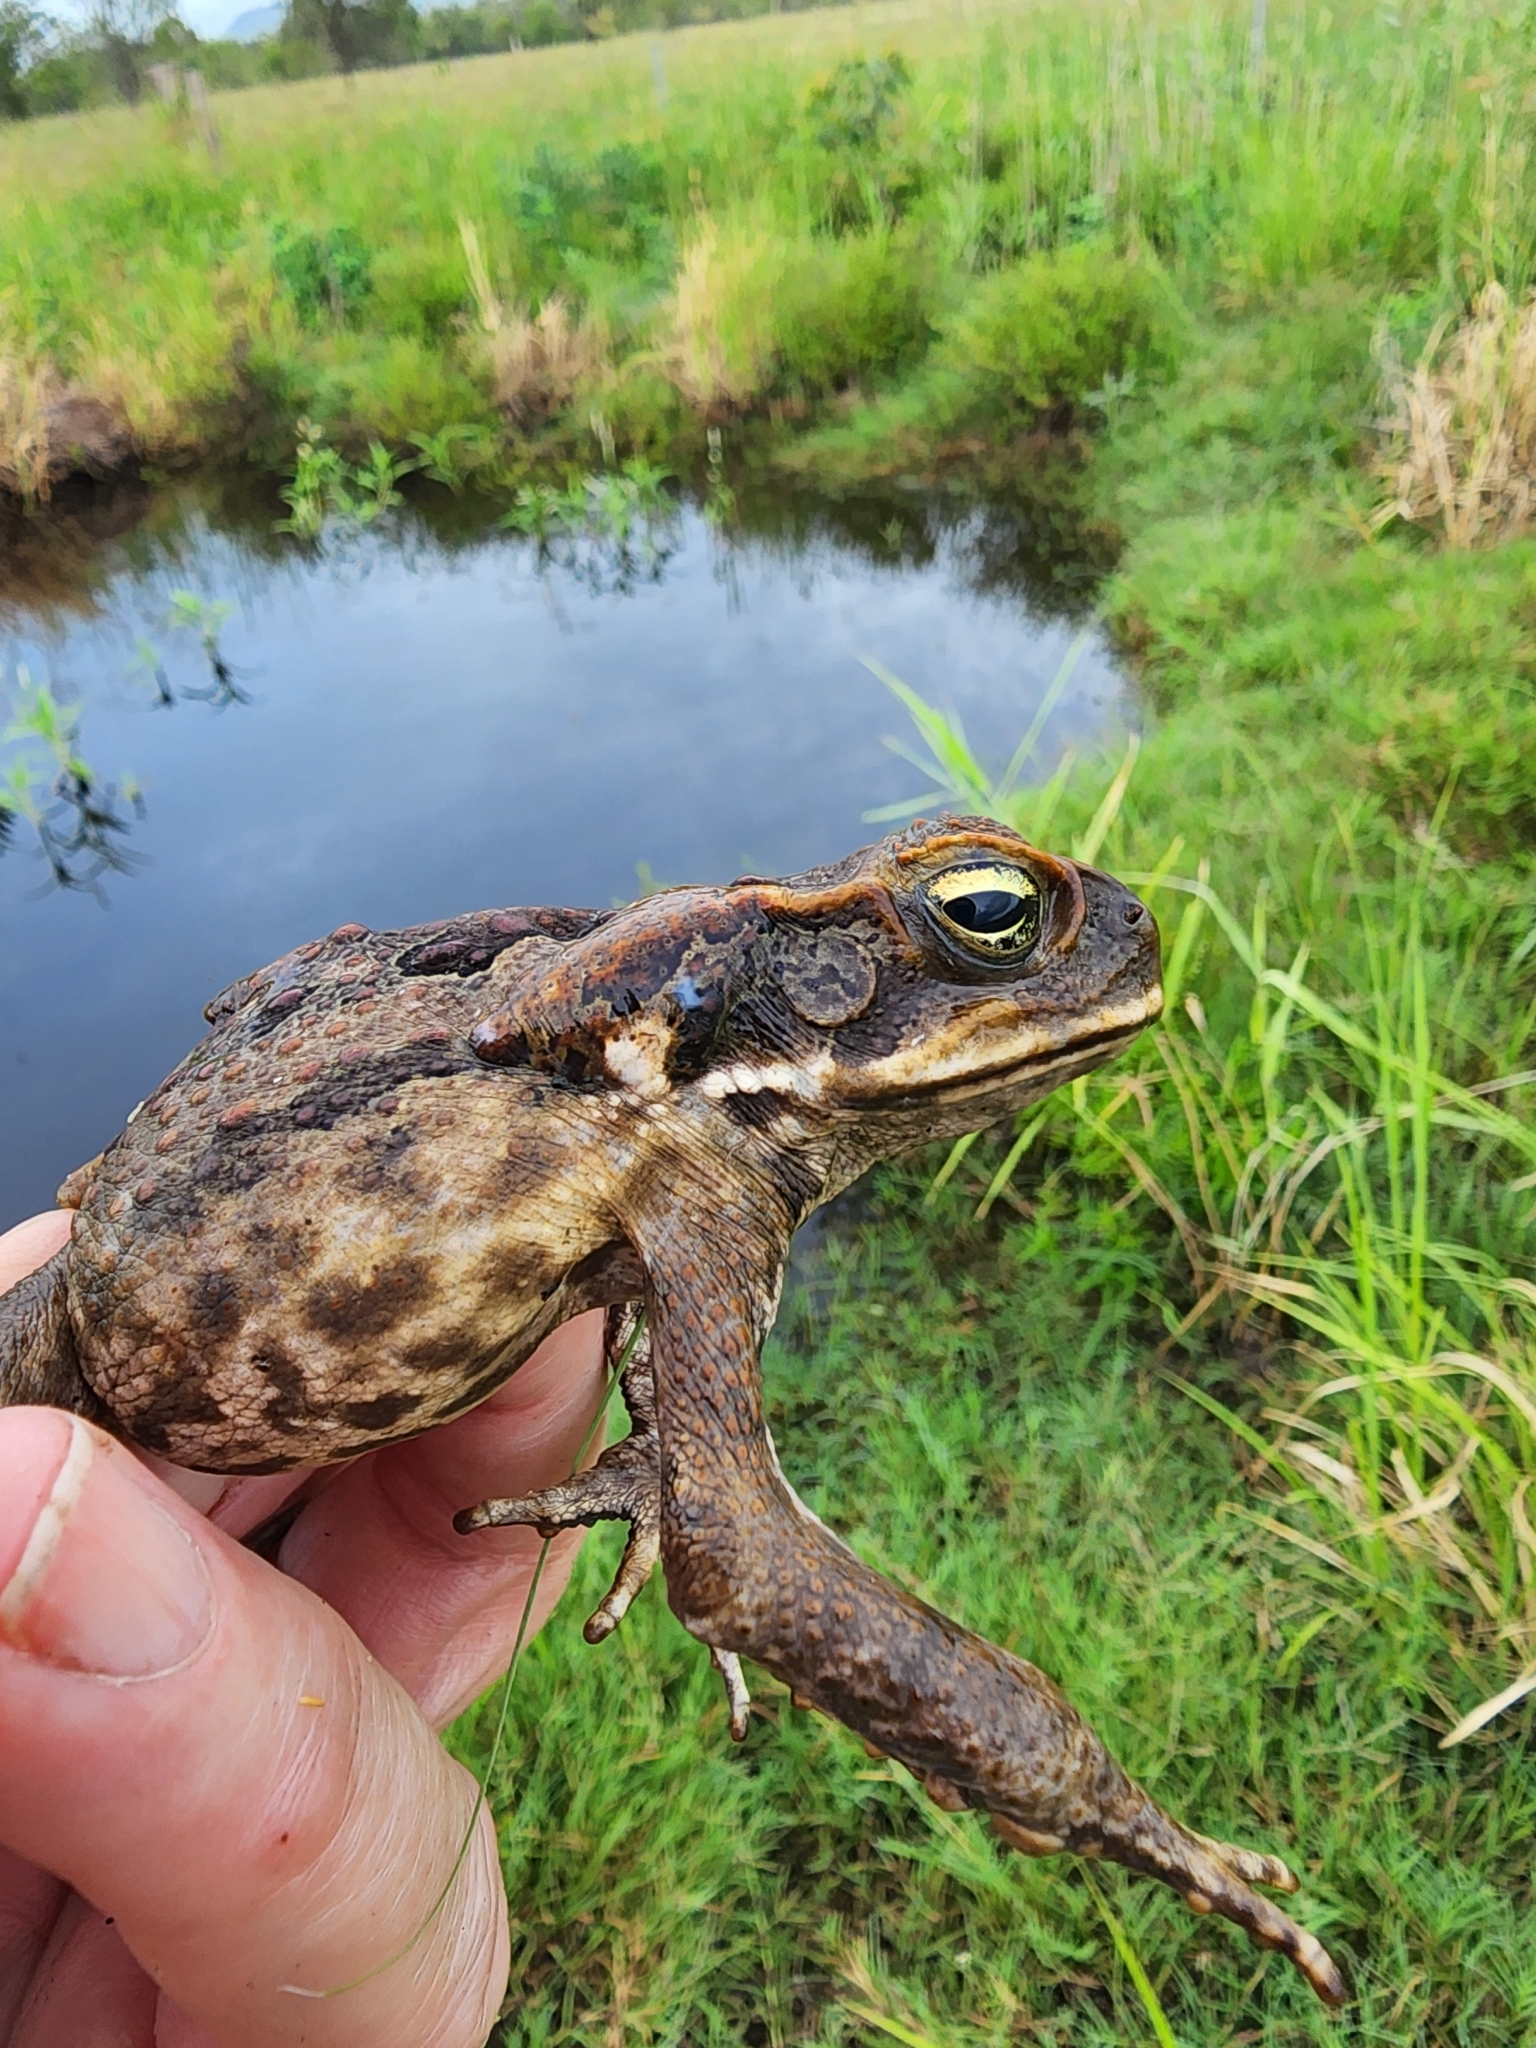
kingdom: Animalia
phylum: Chordata
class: Amphibia
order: Anura
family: Bufonidae
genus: Rhinella
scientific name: Rhinella marina
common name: Cane toad
